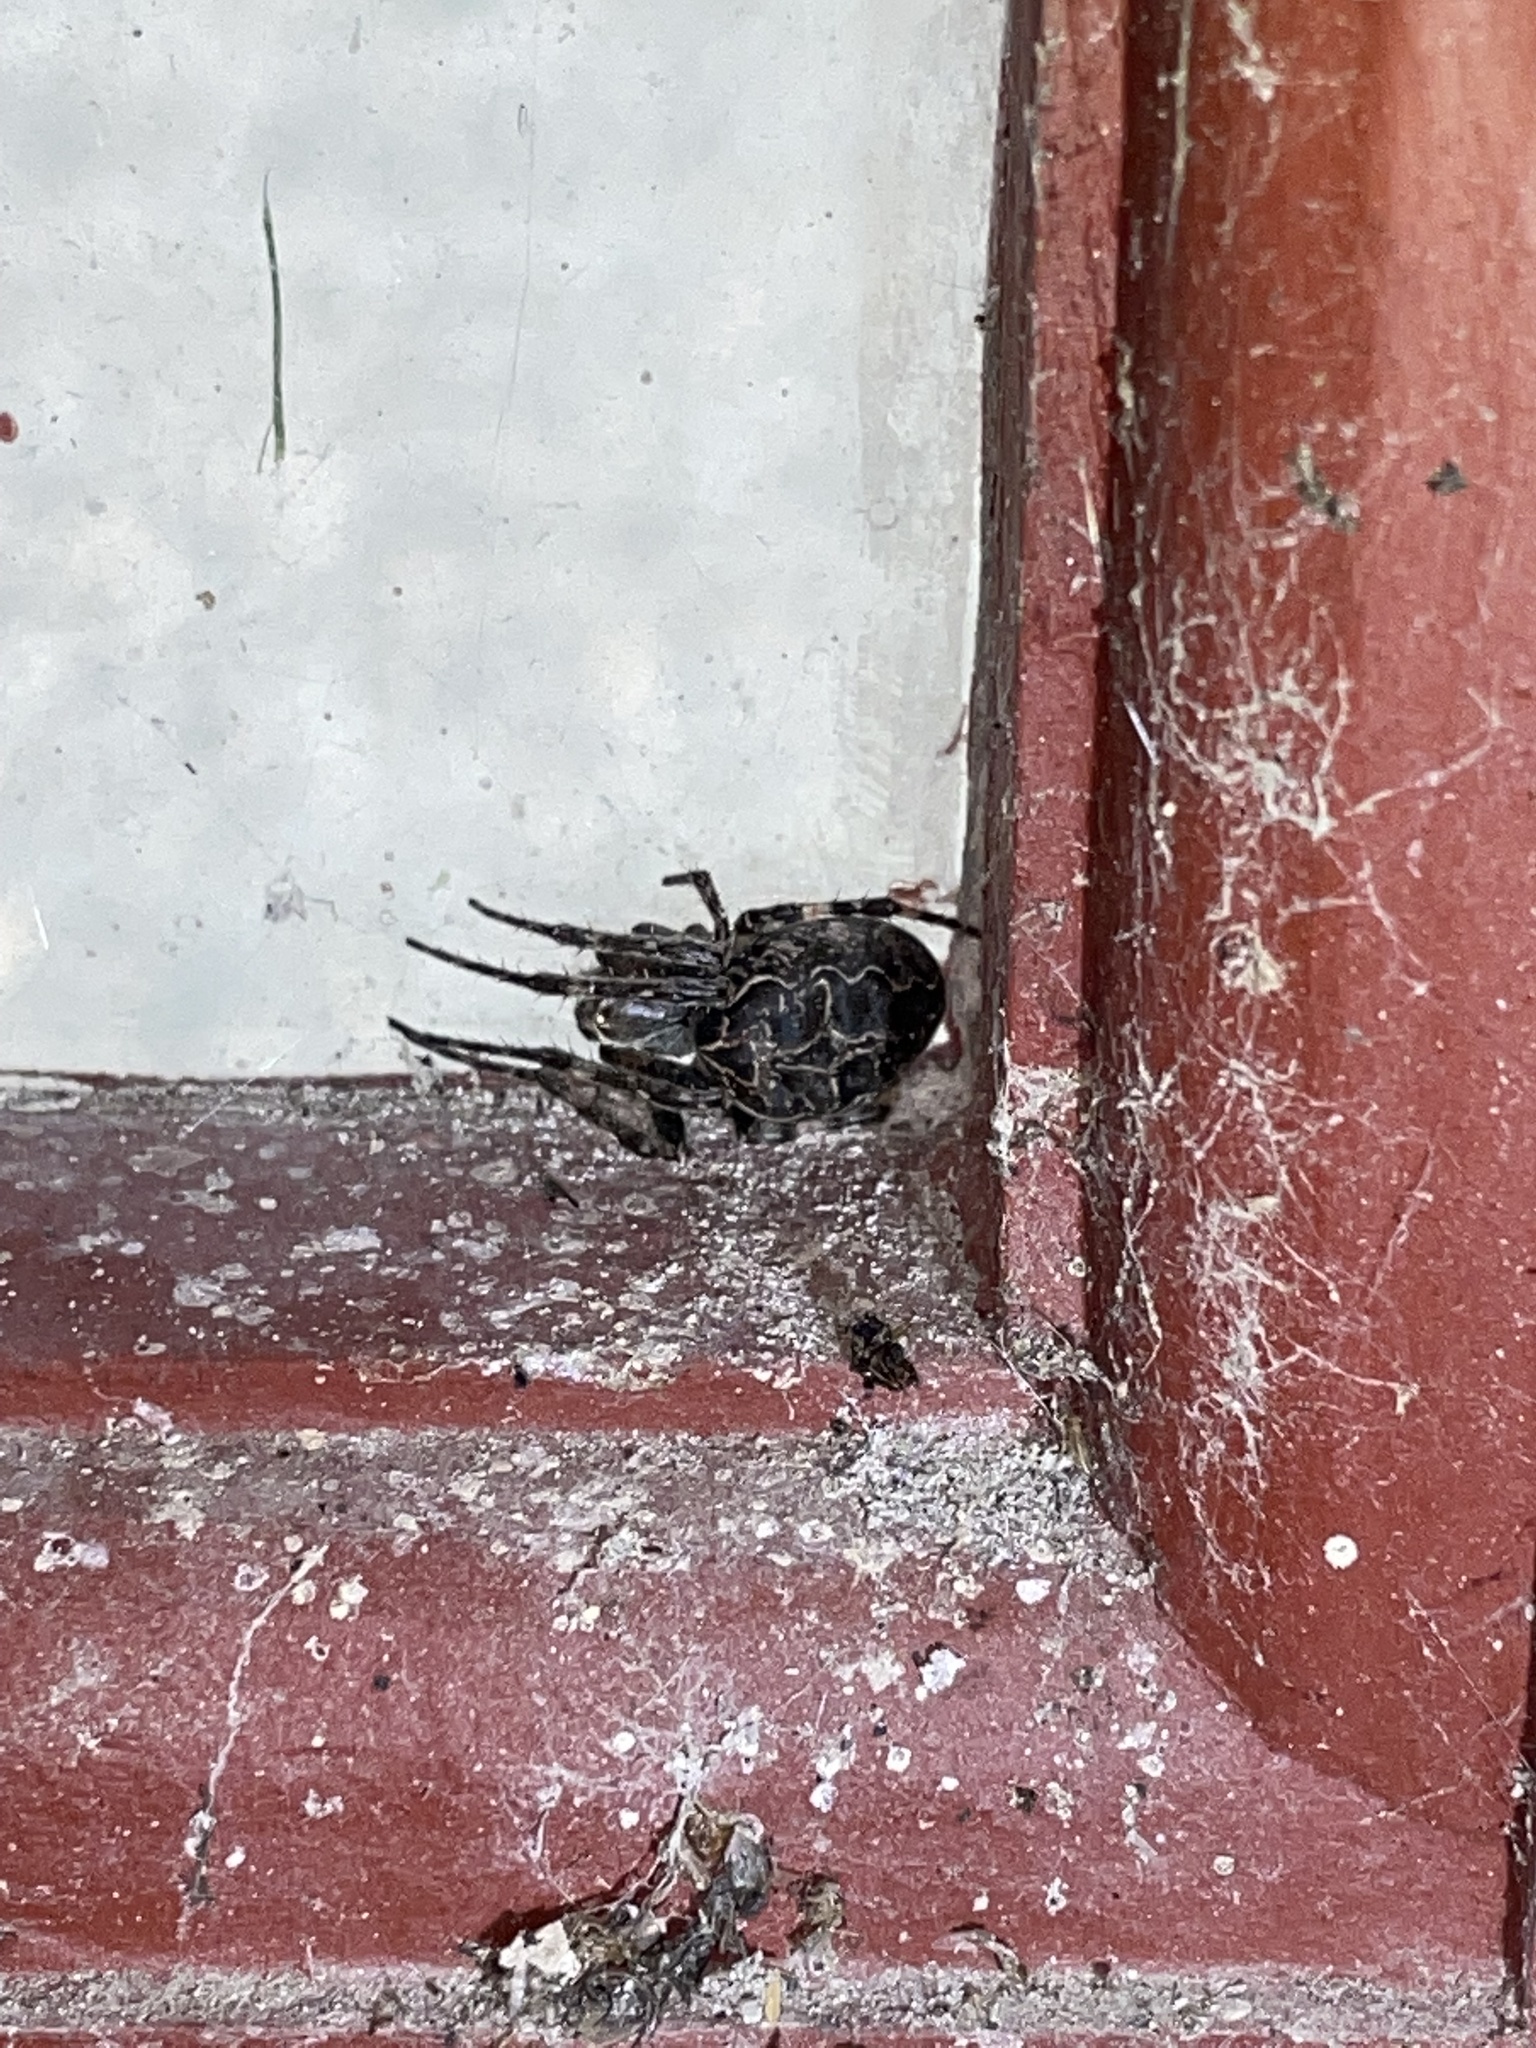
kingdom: Animalia
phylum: Arthropoda
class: Arachnida
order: Araneae
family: Araneidae
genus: Larinioides
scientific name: Larinioides sclopetarius
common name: Bridge orbweaver
